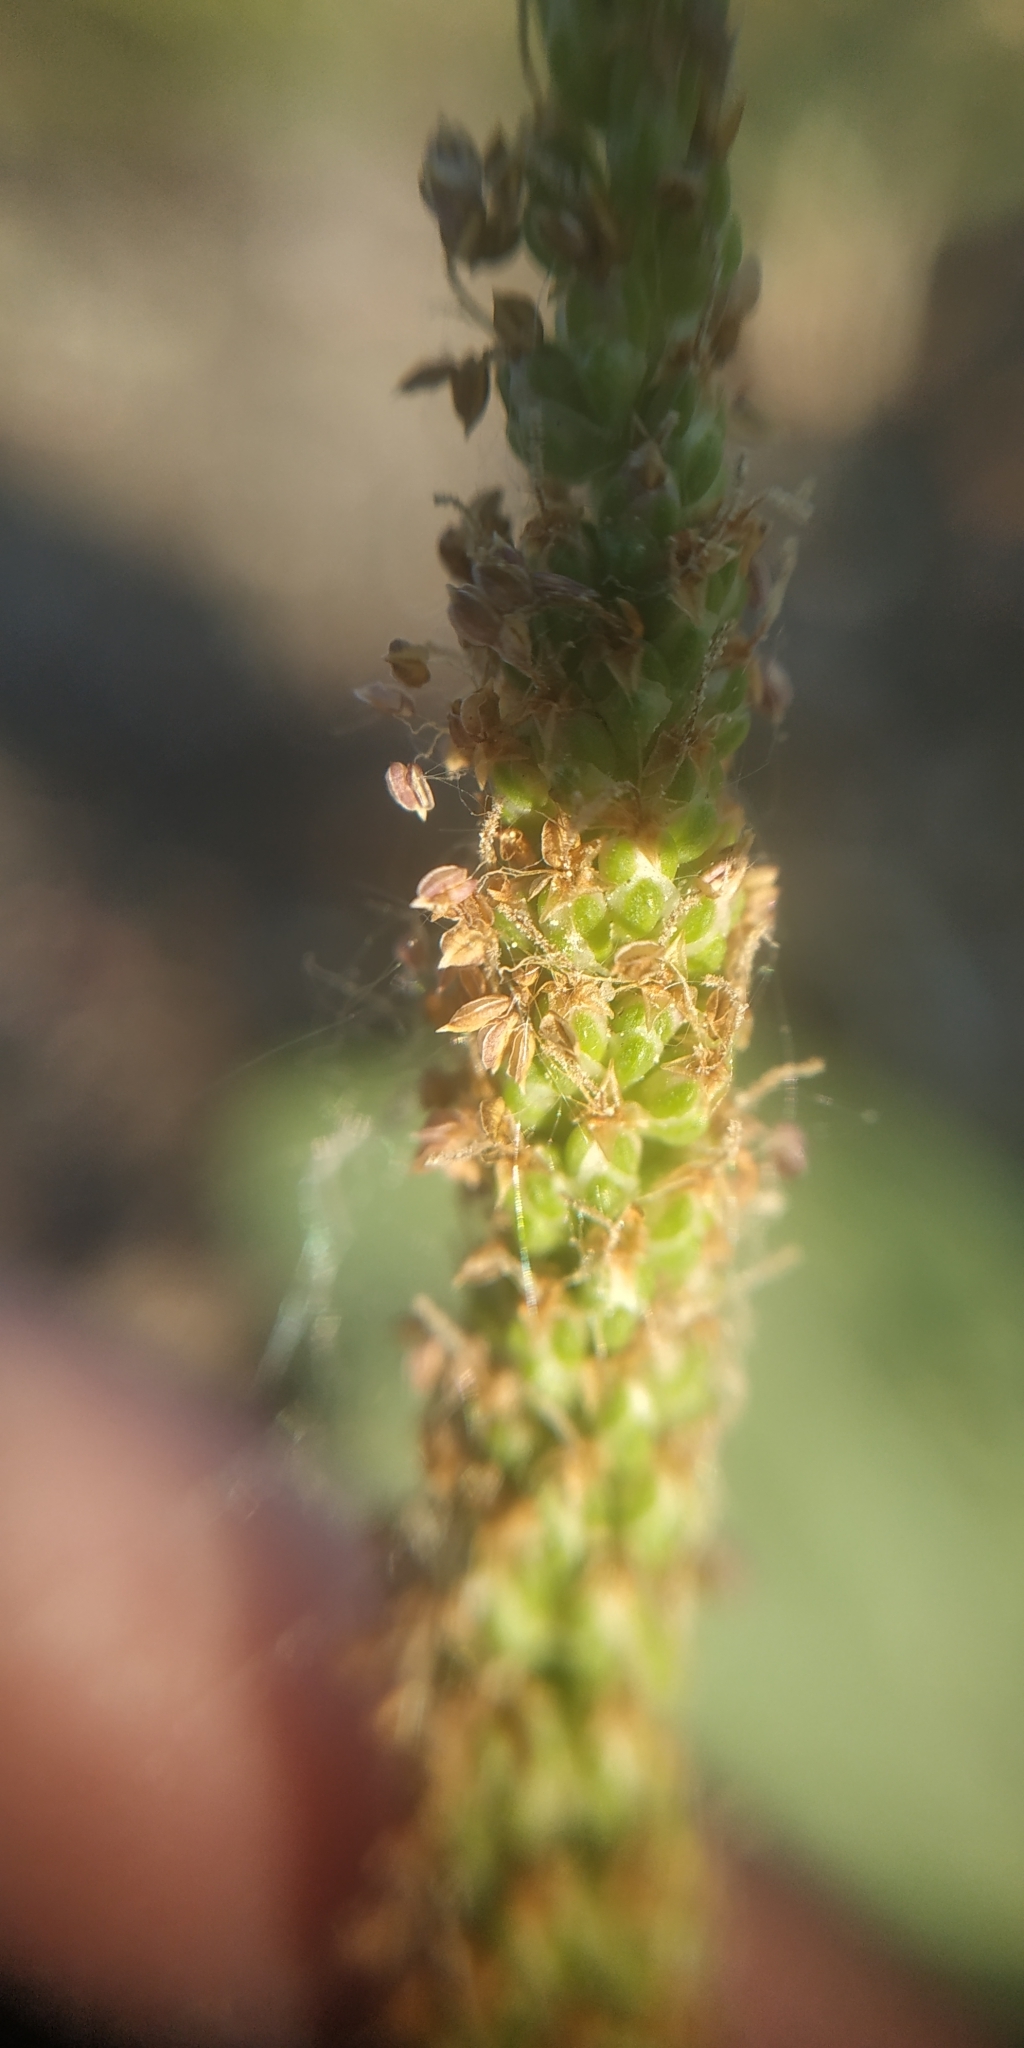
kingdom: Plantae
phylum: Tracheophyta
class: Magnoliopsida
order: Lamiales
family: Plantaginaceae
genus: Plantago
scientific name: Plantago major
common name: Common plantain
